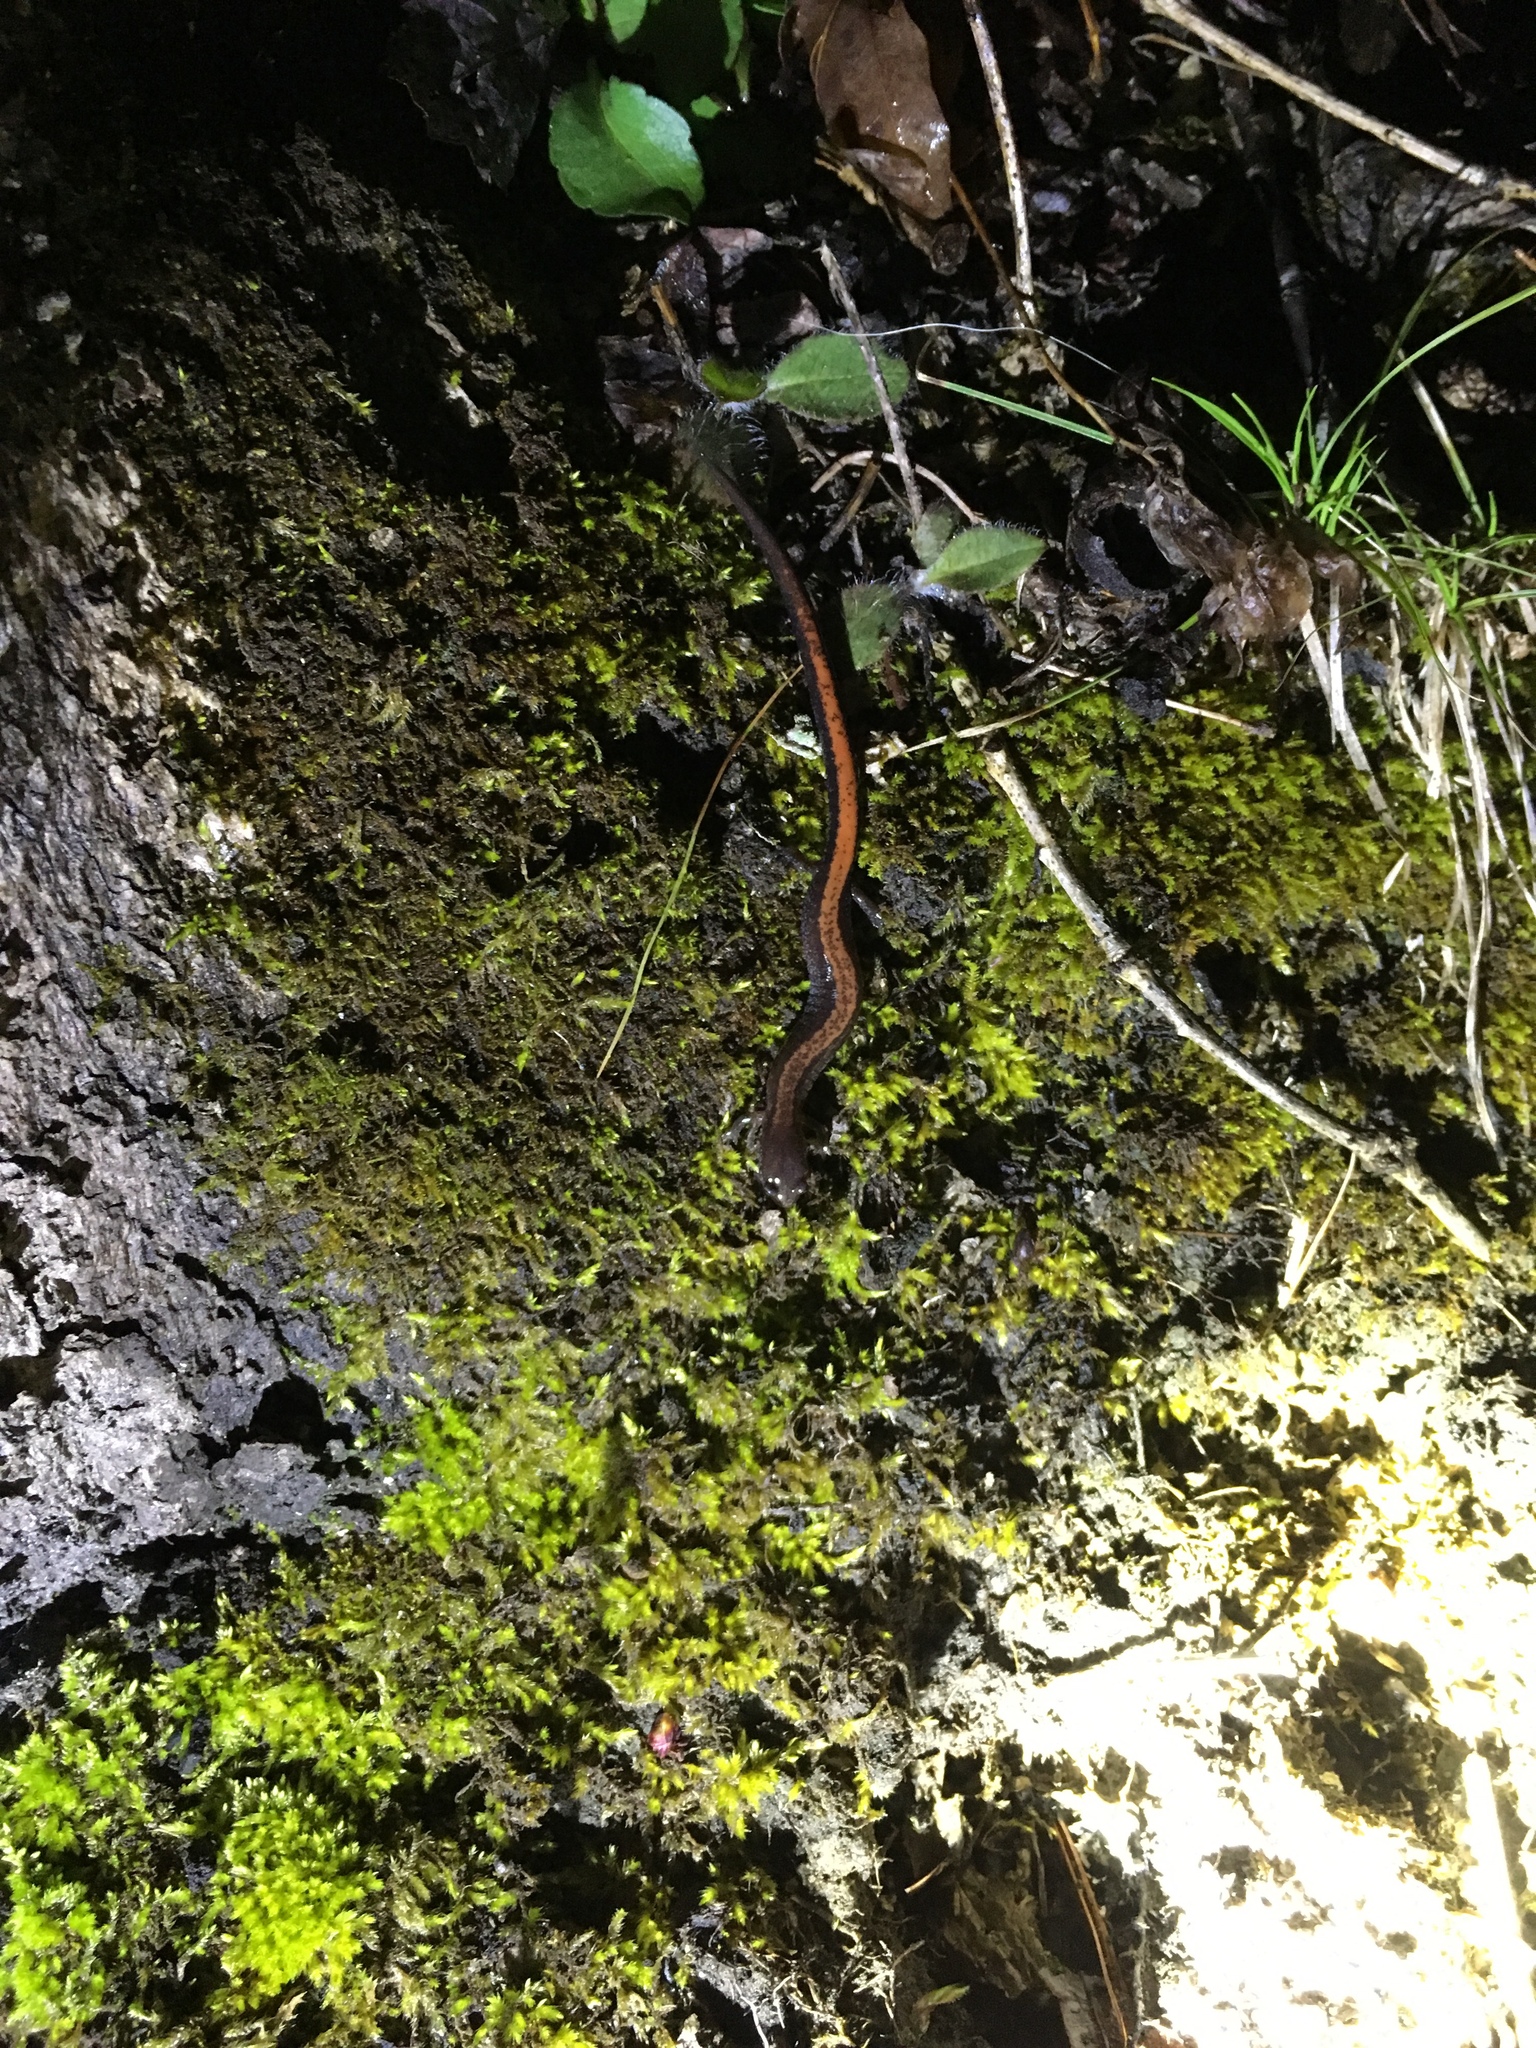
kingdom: Animalia
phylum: Chordata
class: Amphibia
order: Caudata
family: Plethodontidae
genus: Plethodon
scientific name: Plethodon cinereus
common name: Redback salamander
